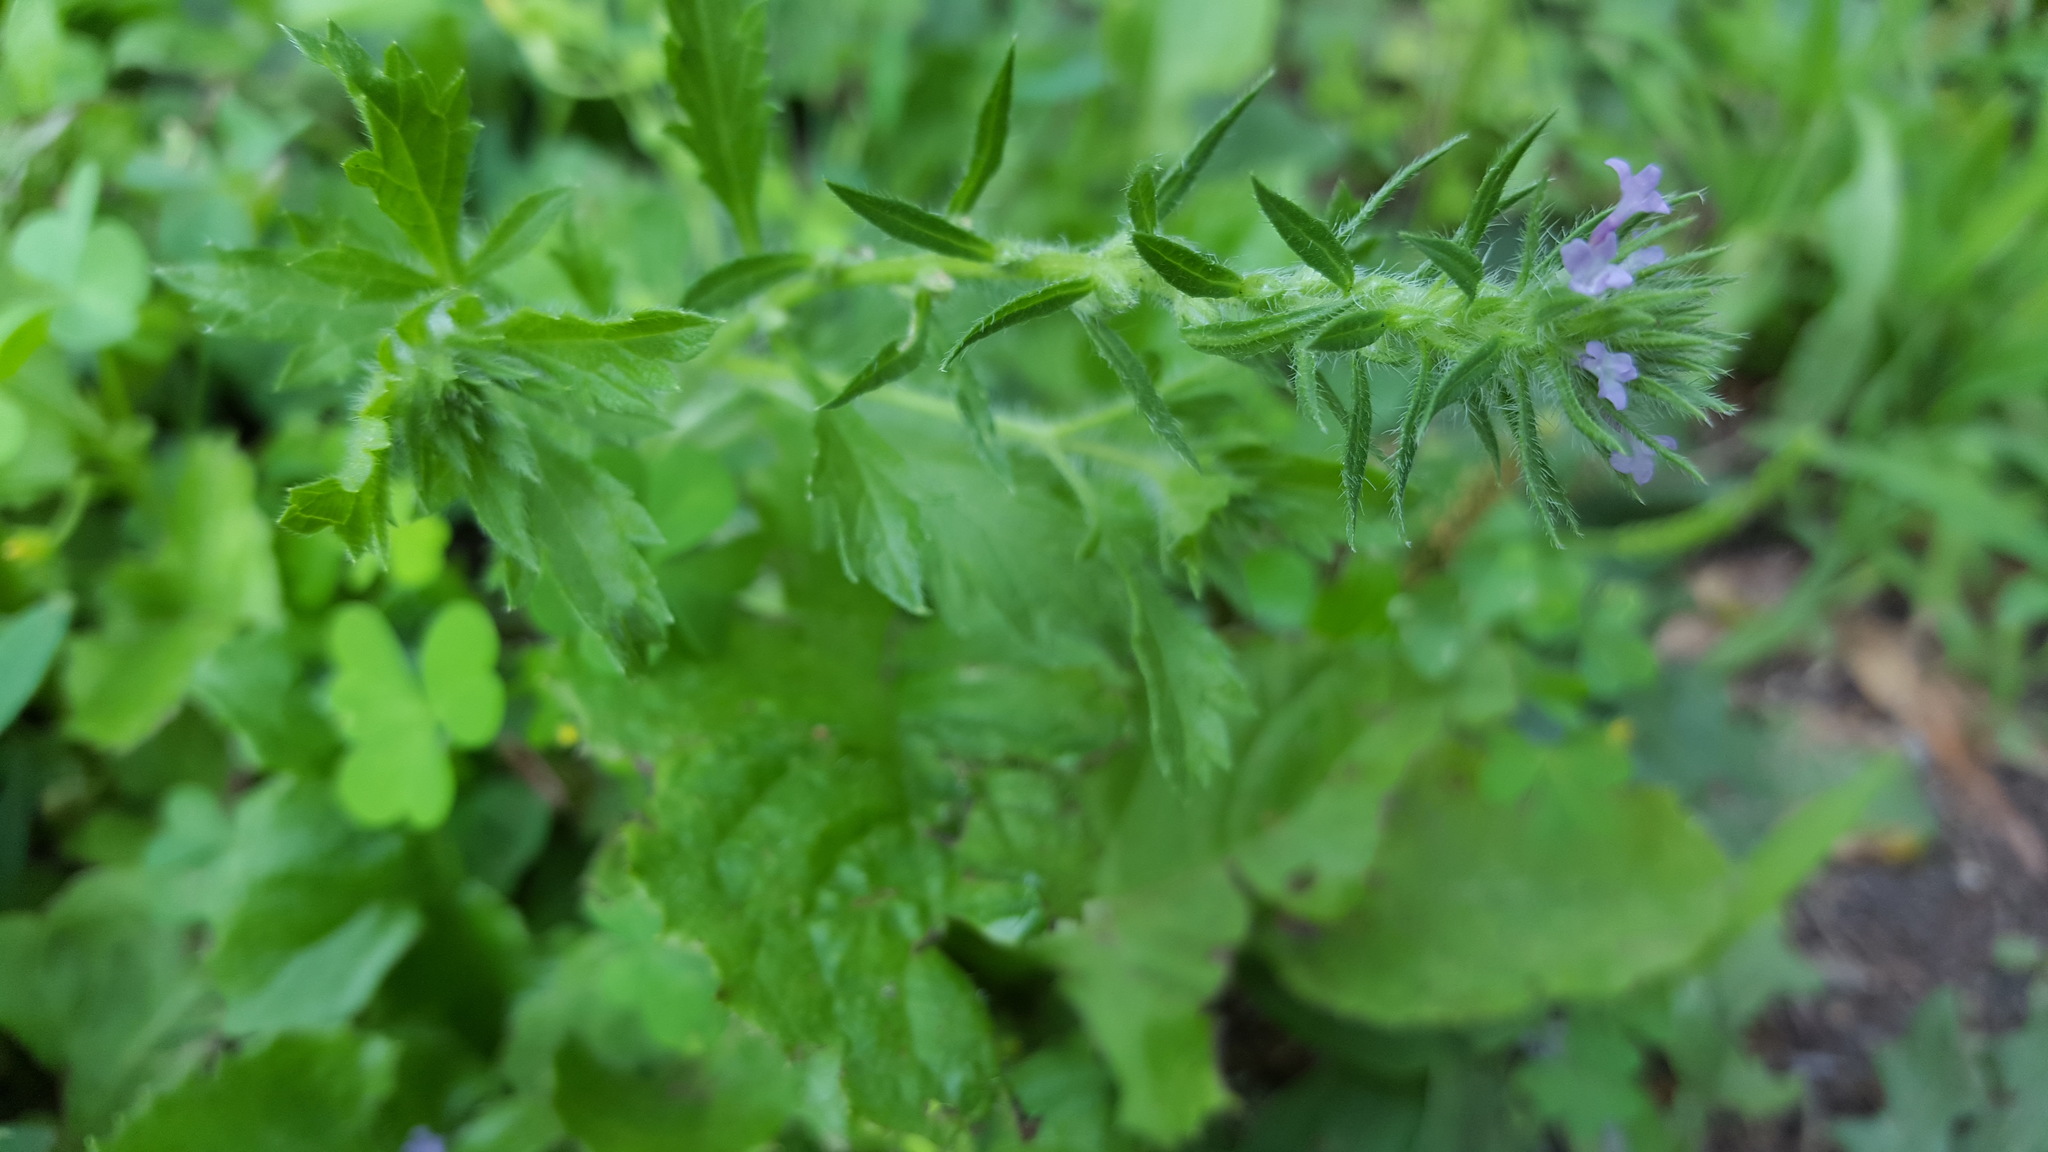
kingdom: Plantae
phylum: Tracheophyta
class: Magnoliopsida
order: Lamiales
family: Verbenaceae
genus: Verbena
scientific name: Verbena bracteata
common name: Bracted vervain
